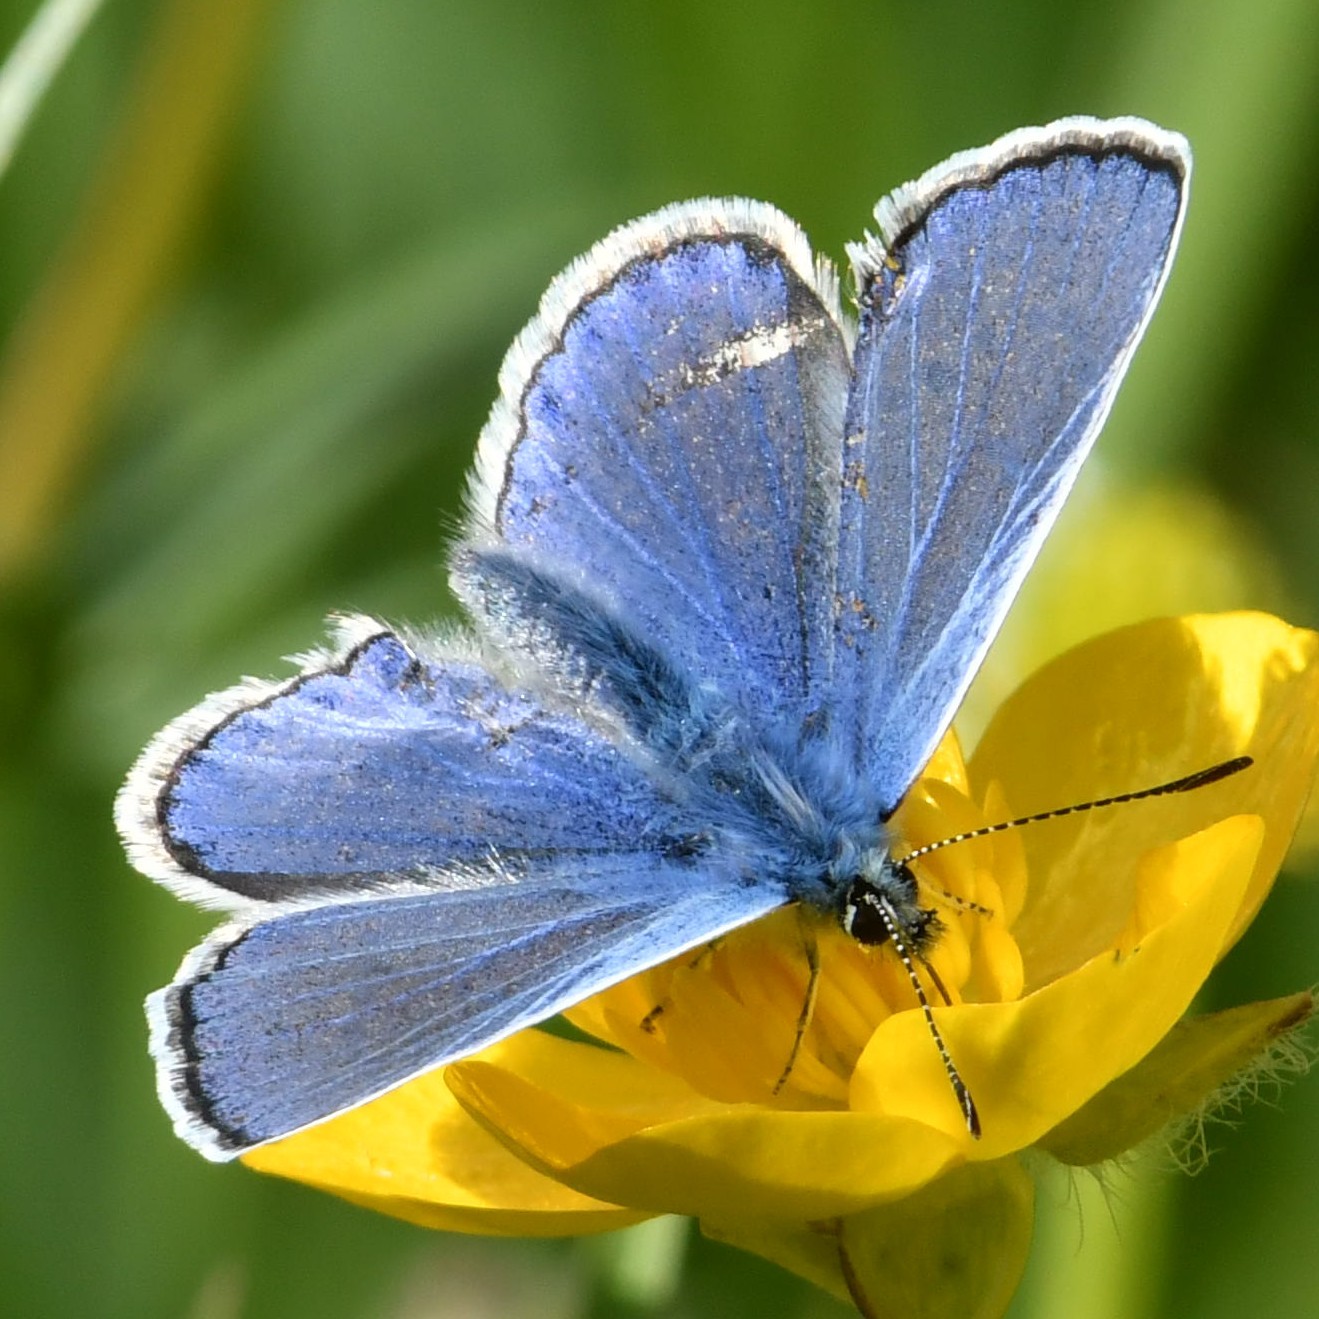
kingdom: Animalia
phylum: Arthropoda
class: Insecta
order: Lepidoptera
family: Lycaenidae
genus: Polyommatus
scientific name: Polyommatus icarus
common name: Common blue
